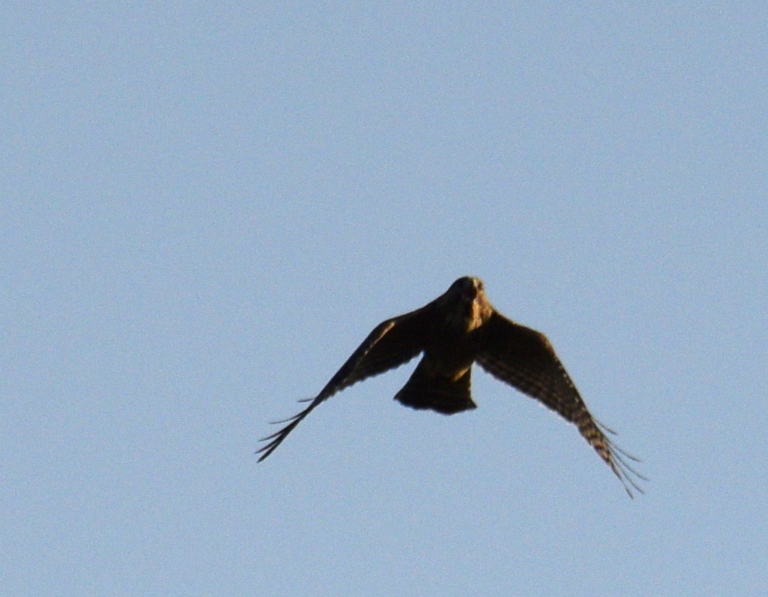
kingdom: Animalia
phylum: Chordata
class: Aves
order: Accipitriformes
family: Accipitridae
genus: Buteo
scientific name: Buteo lineatus
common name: Red-shouldered hawk
